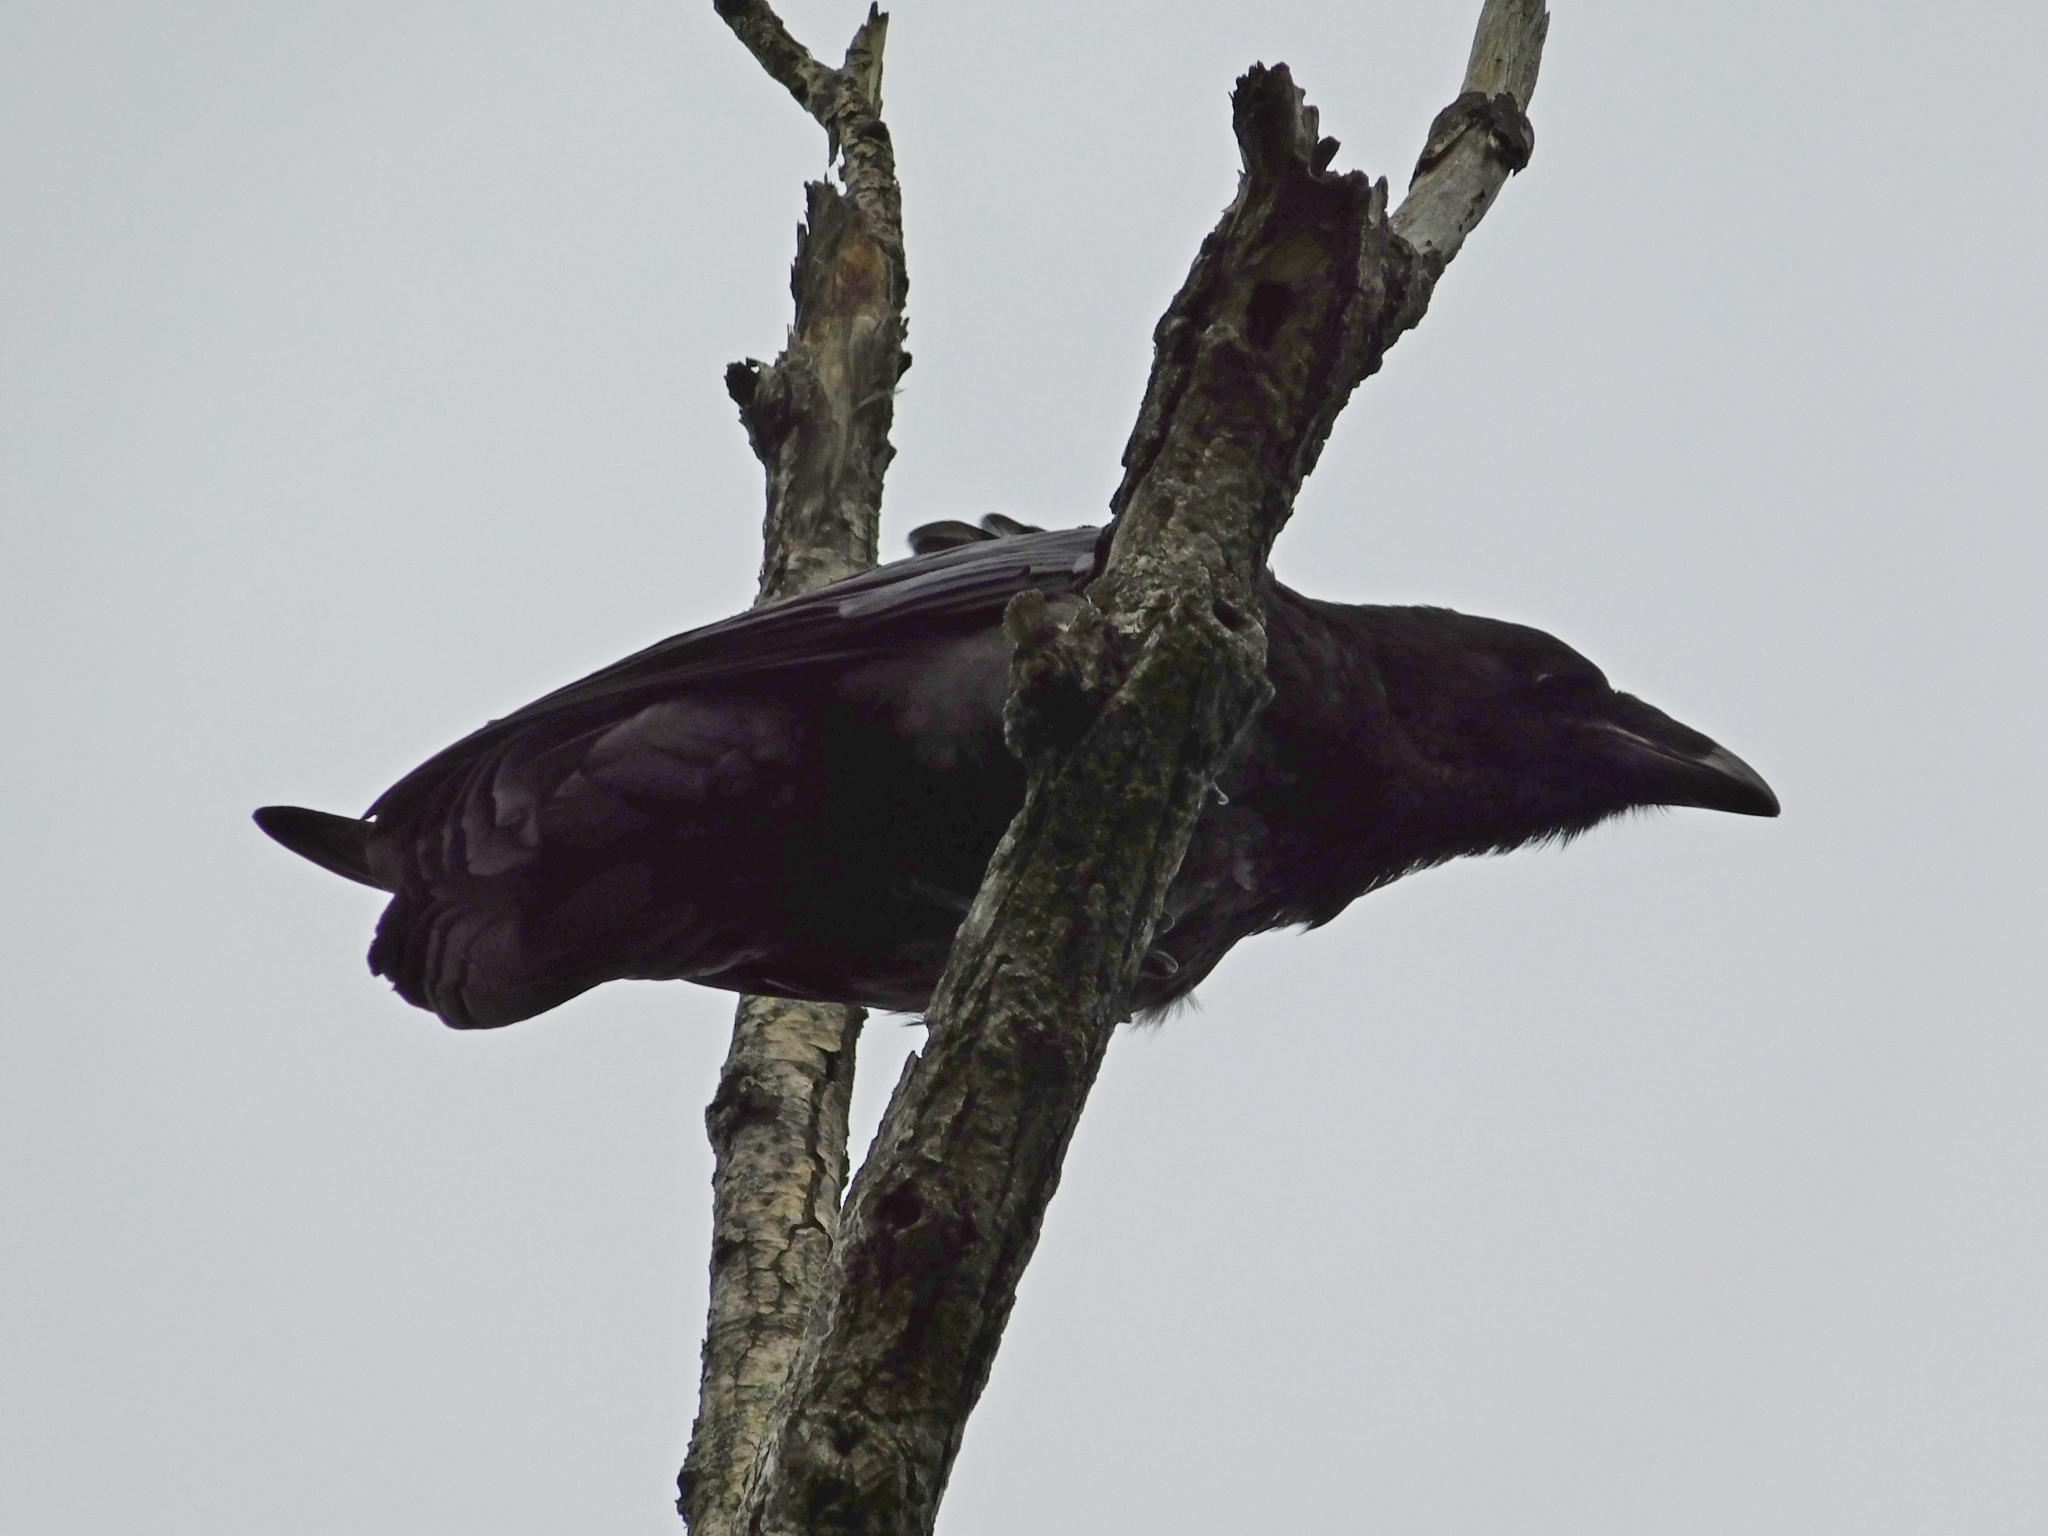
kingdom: Animalia
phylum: Chordata
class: Aves
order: Passeriformes
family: Corvidae
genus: Corvus
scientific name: Corvus corax
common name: Common raven
